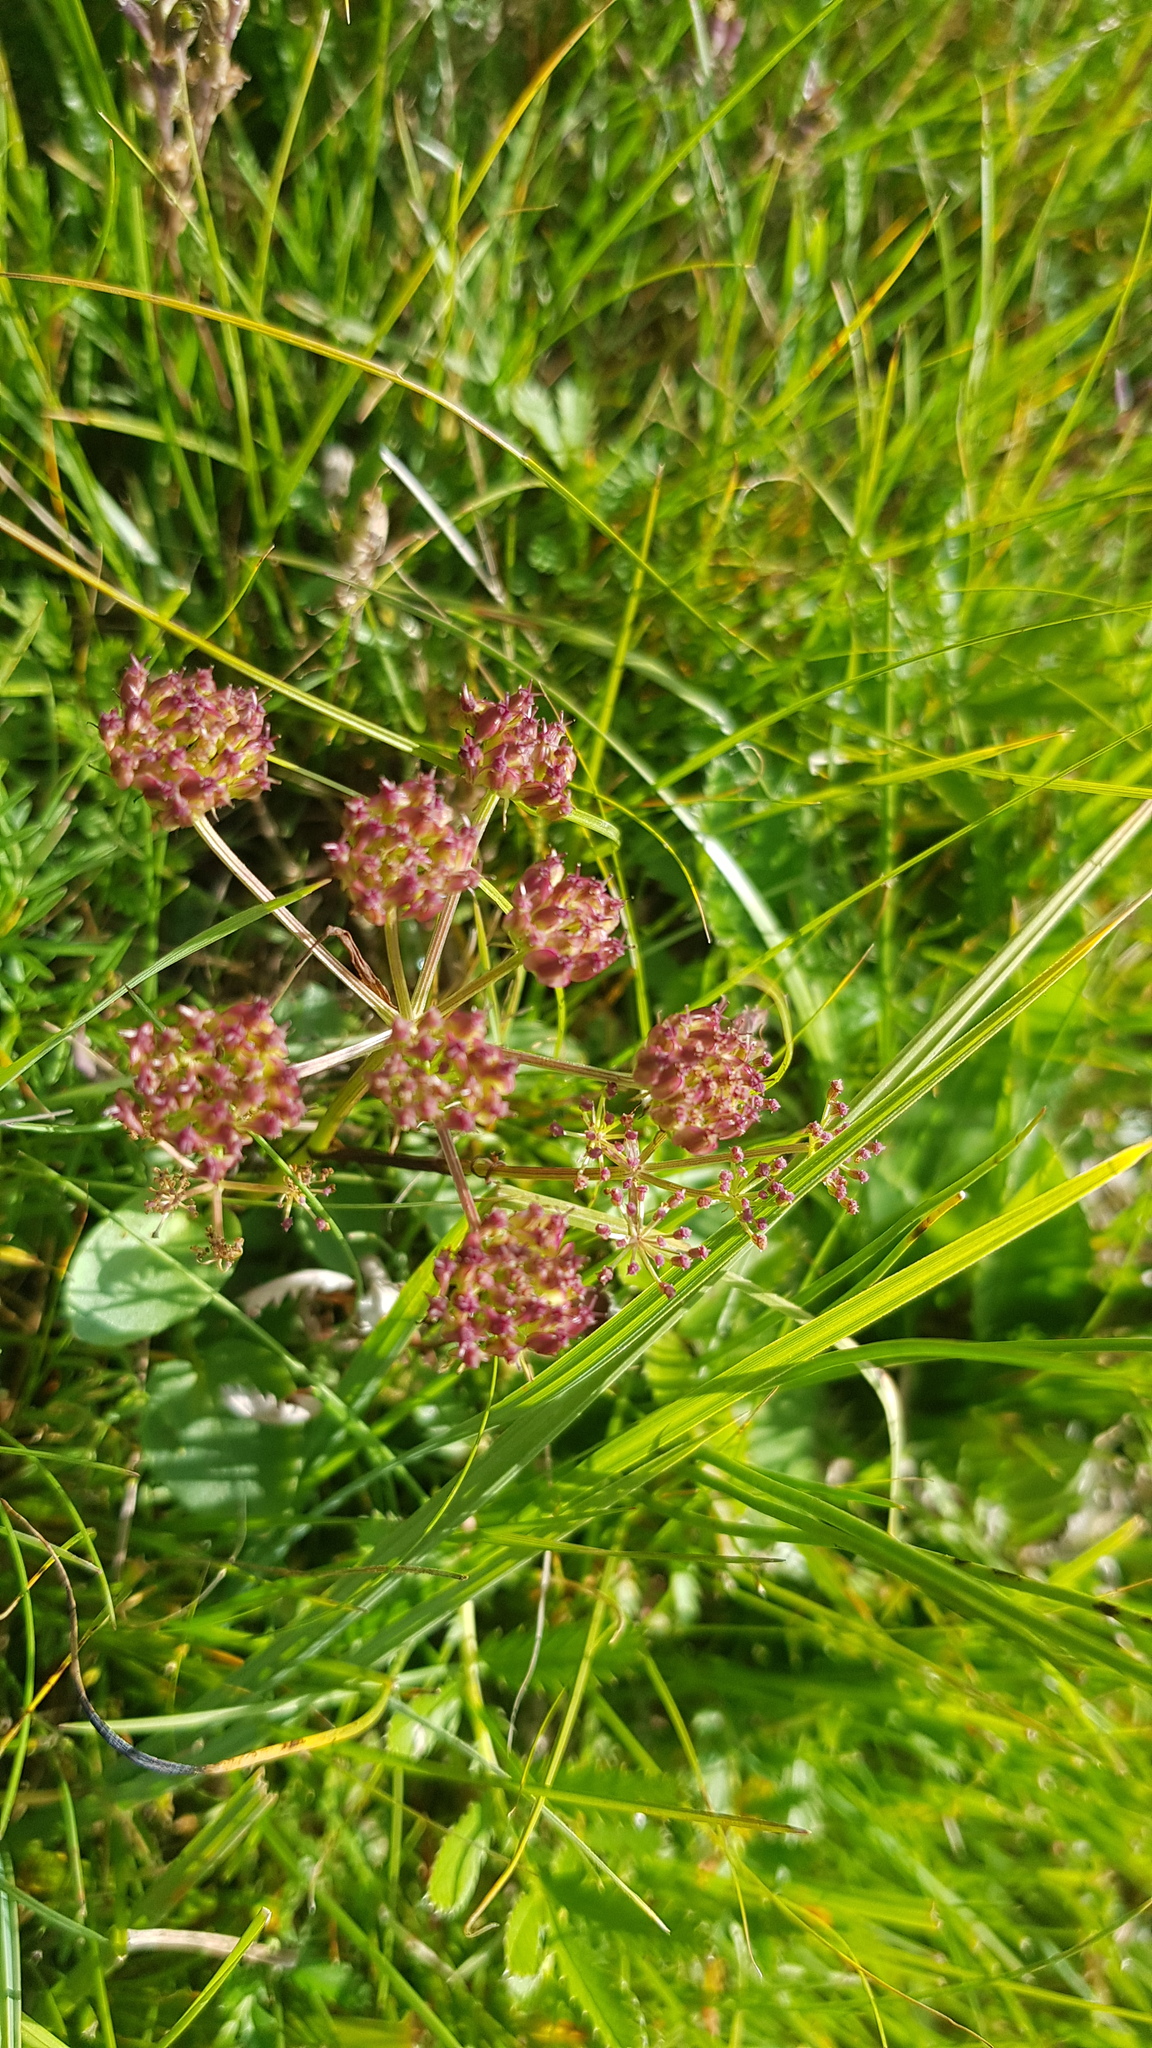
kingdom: Plantae
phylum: Tracheophyta
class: Magnoliopsida
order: Apiales
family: Apiaceae
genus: Ostericum
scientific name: Ostericum tenuifolium
